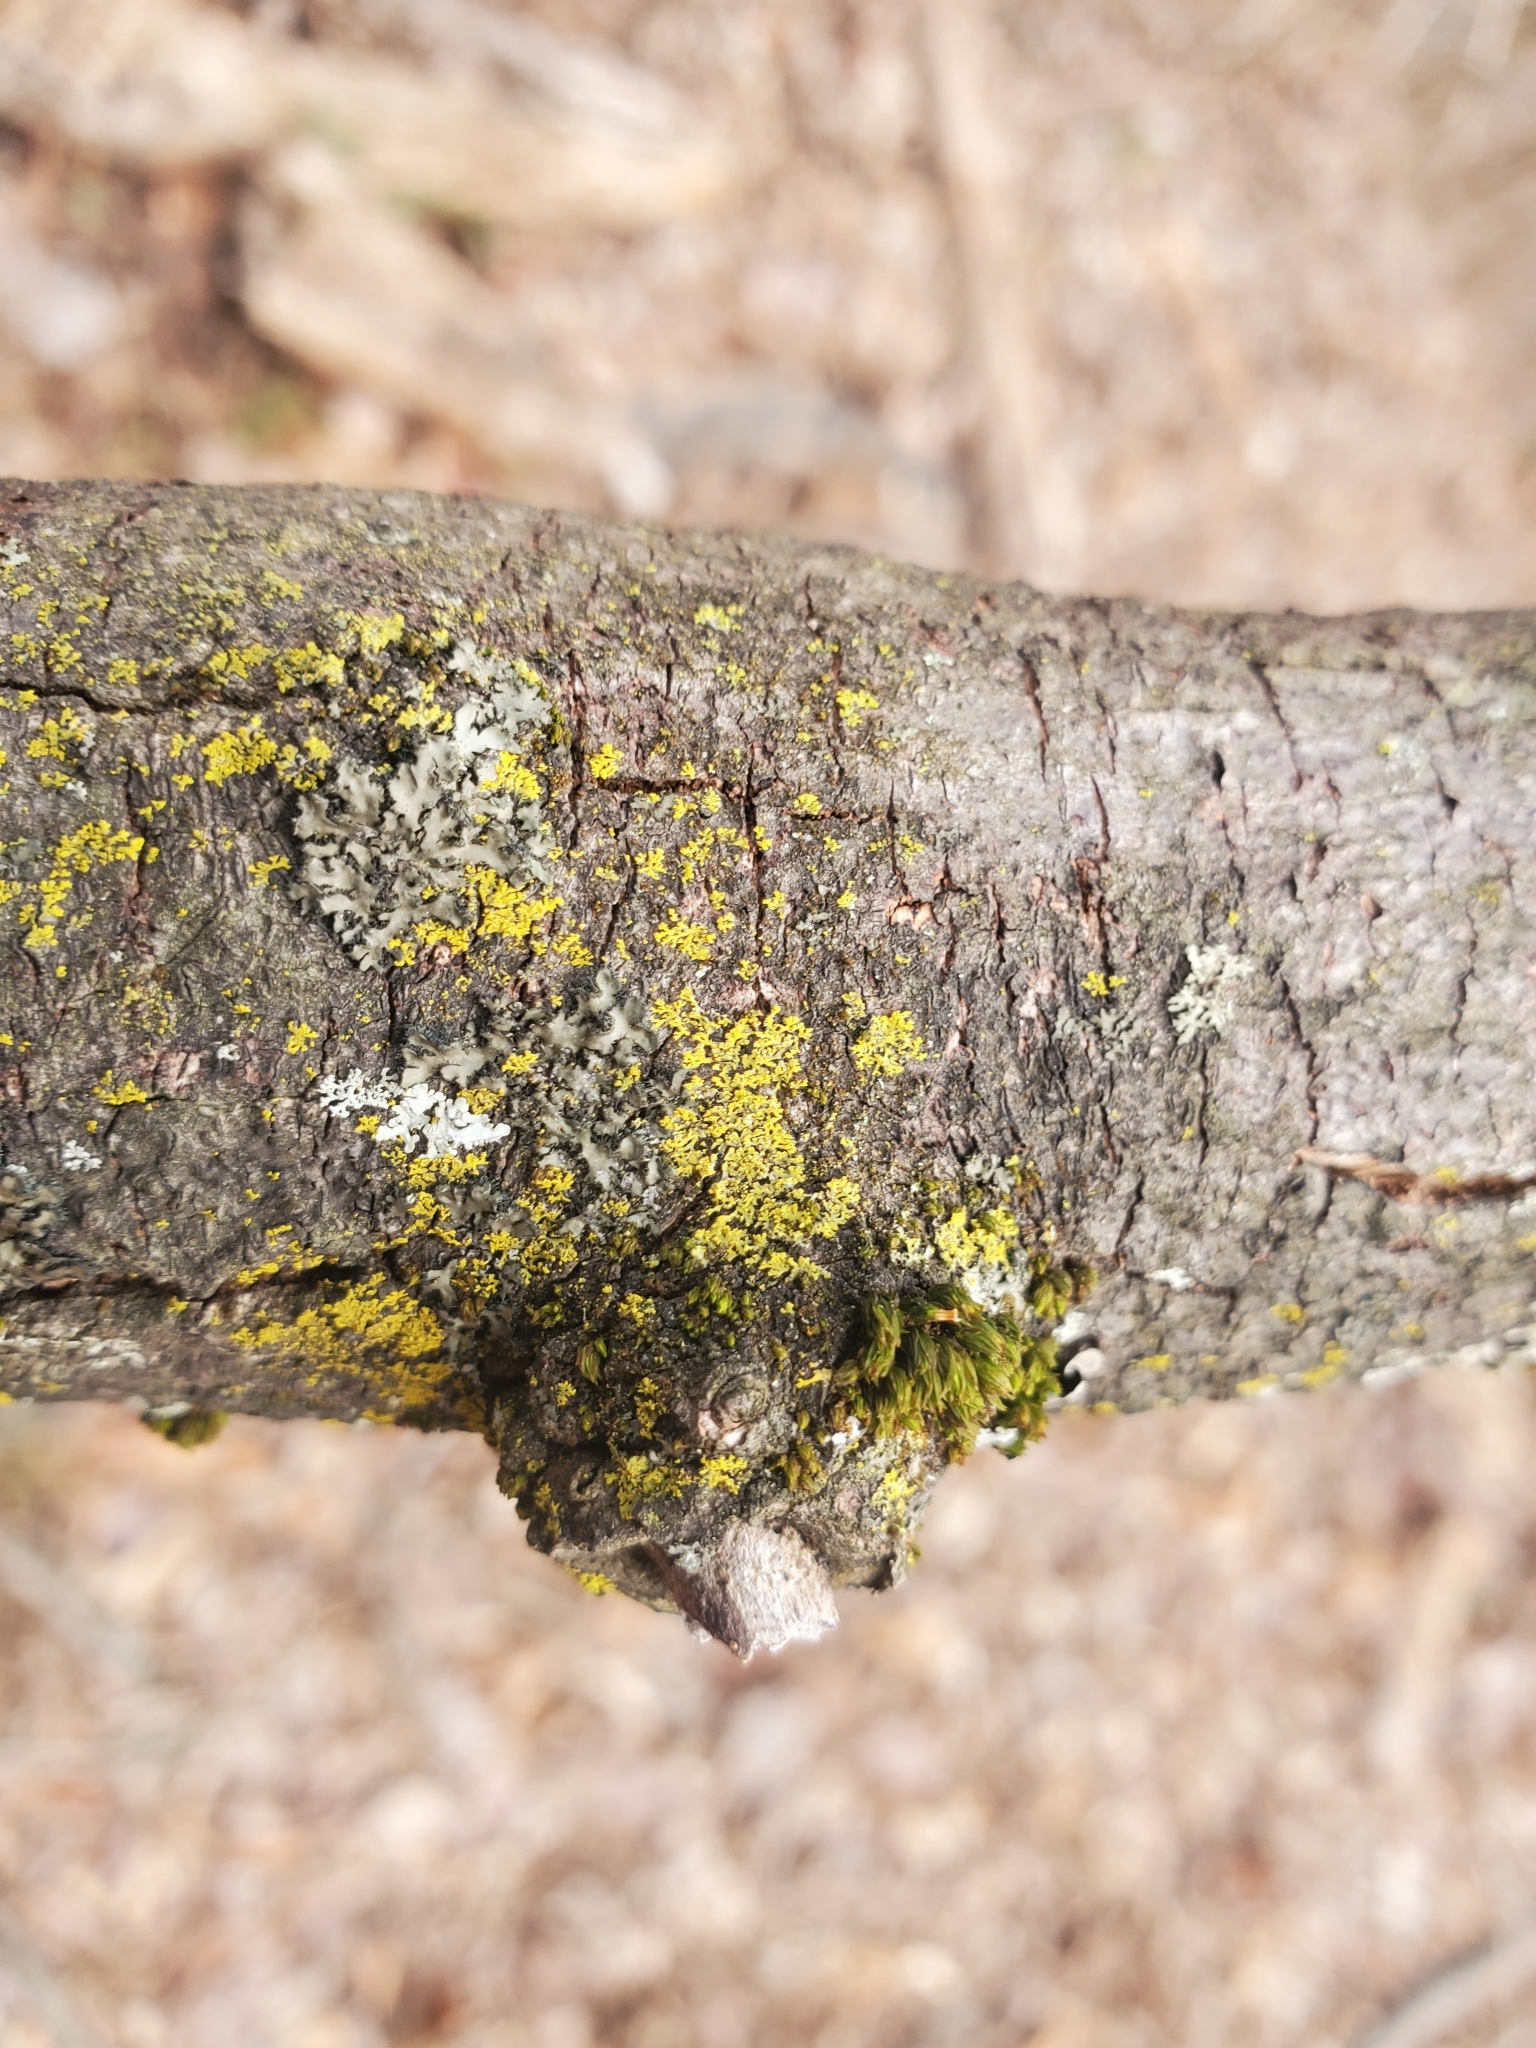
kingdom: Fungi
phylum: Ascomycota
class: Candelariomycetes
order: Candelariales
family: Candelariaceae
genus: Candelaria
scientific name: Candelaria concolor
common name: Candleflame lichen
